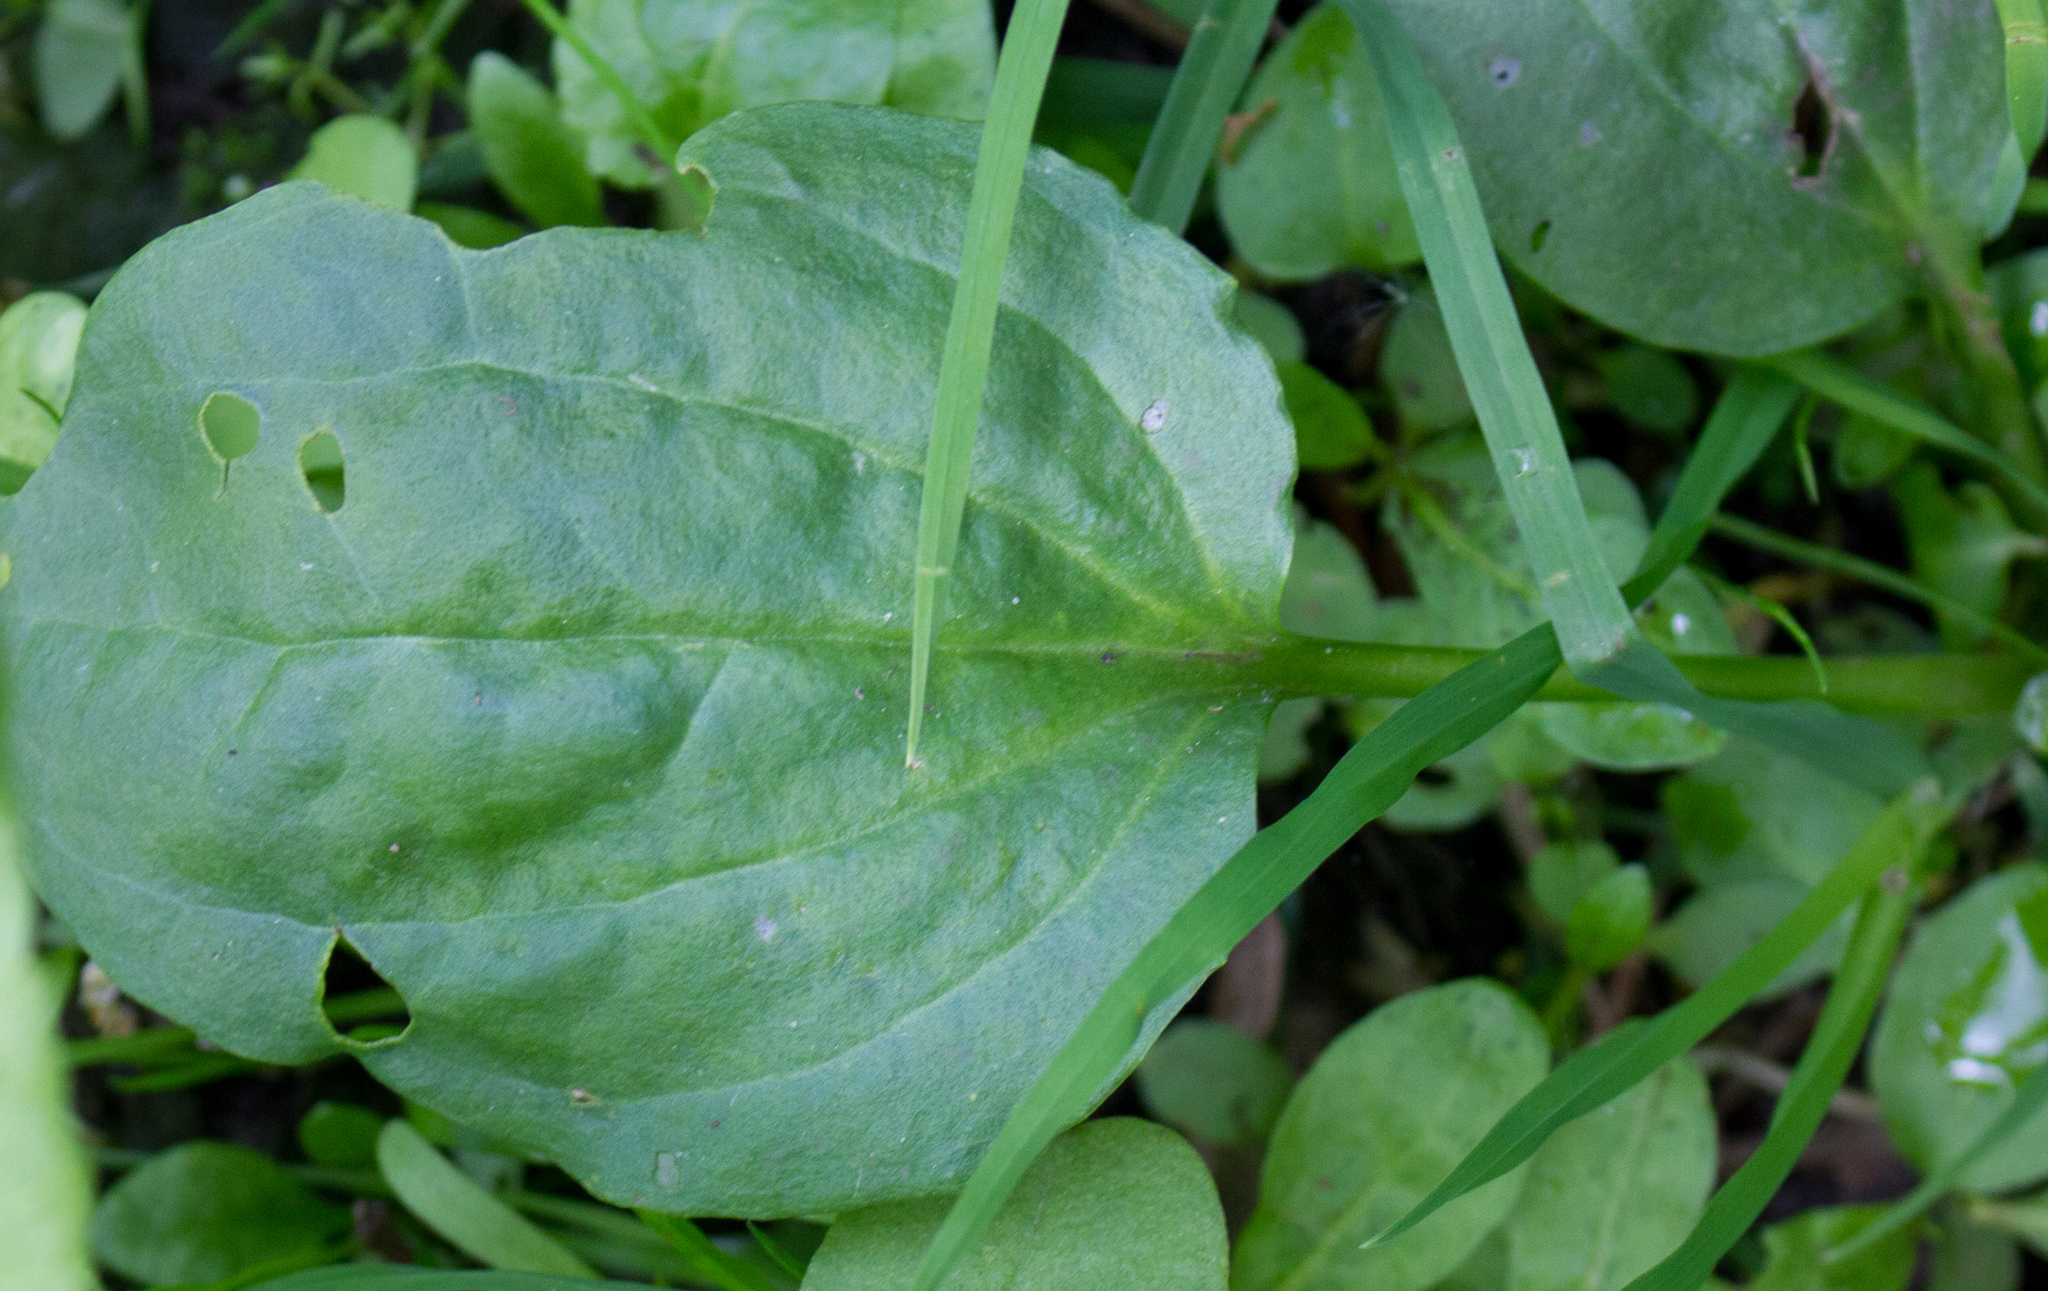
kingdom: Plantae
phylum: Tracheophyta
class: Magnoliopsida
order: Lamiales
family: Plantaginaceae
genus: Plantago
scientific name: Plantago major
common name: Common plantain
